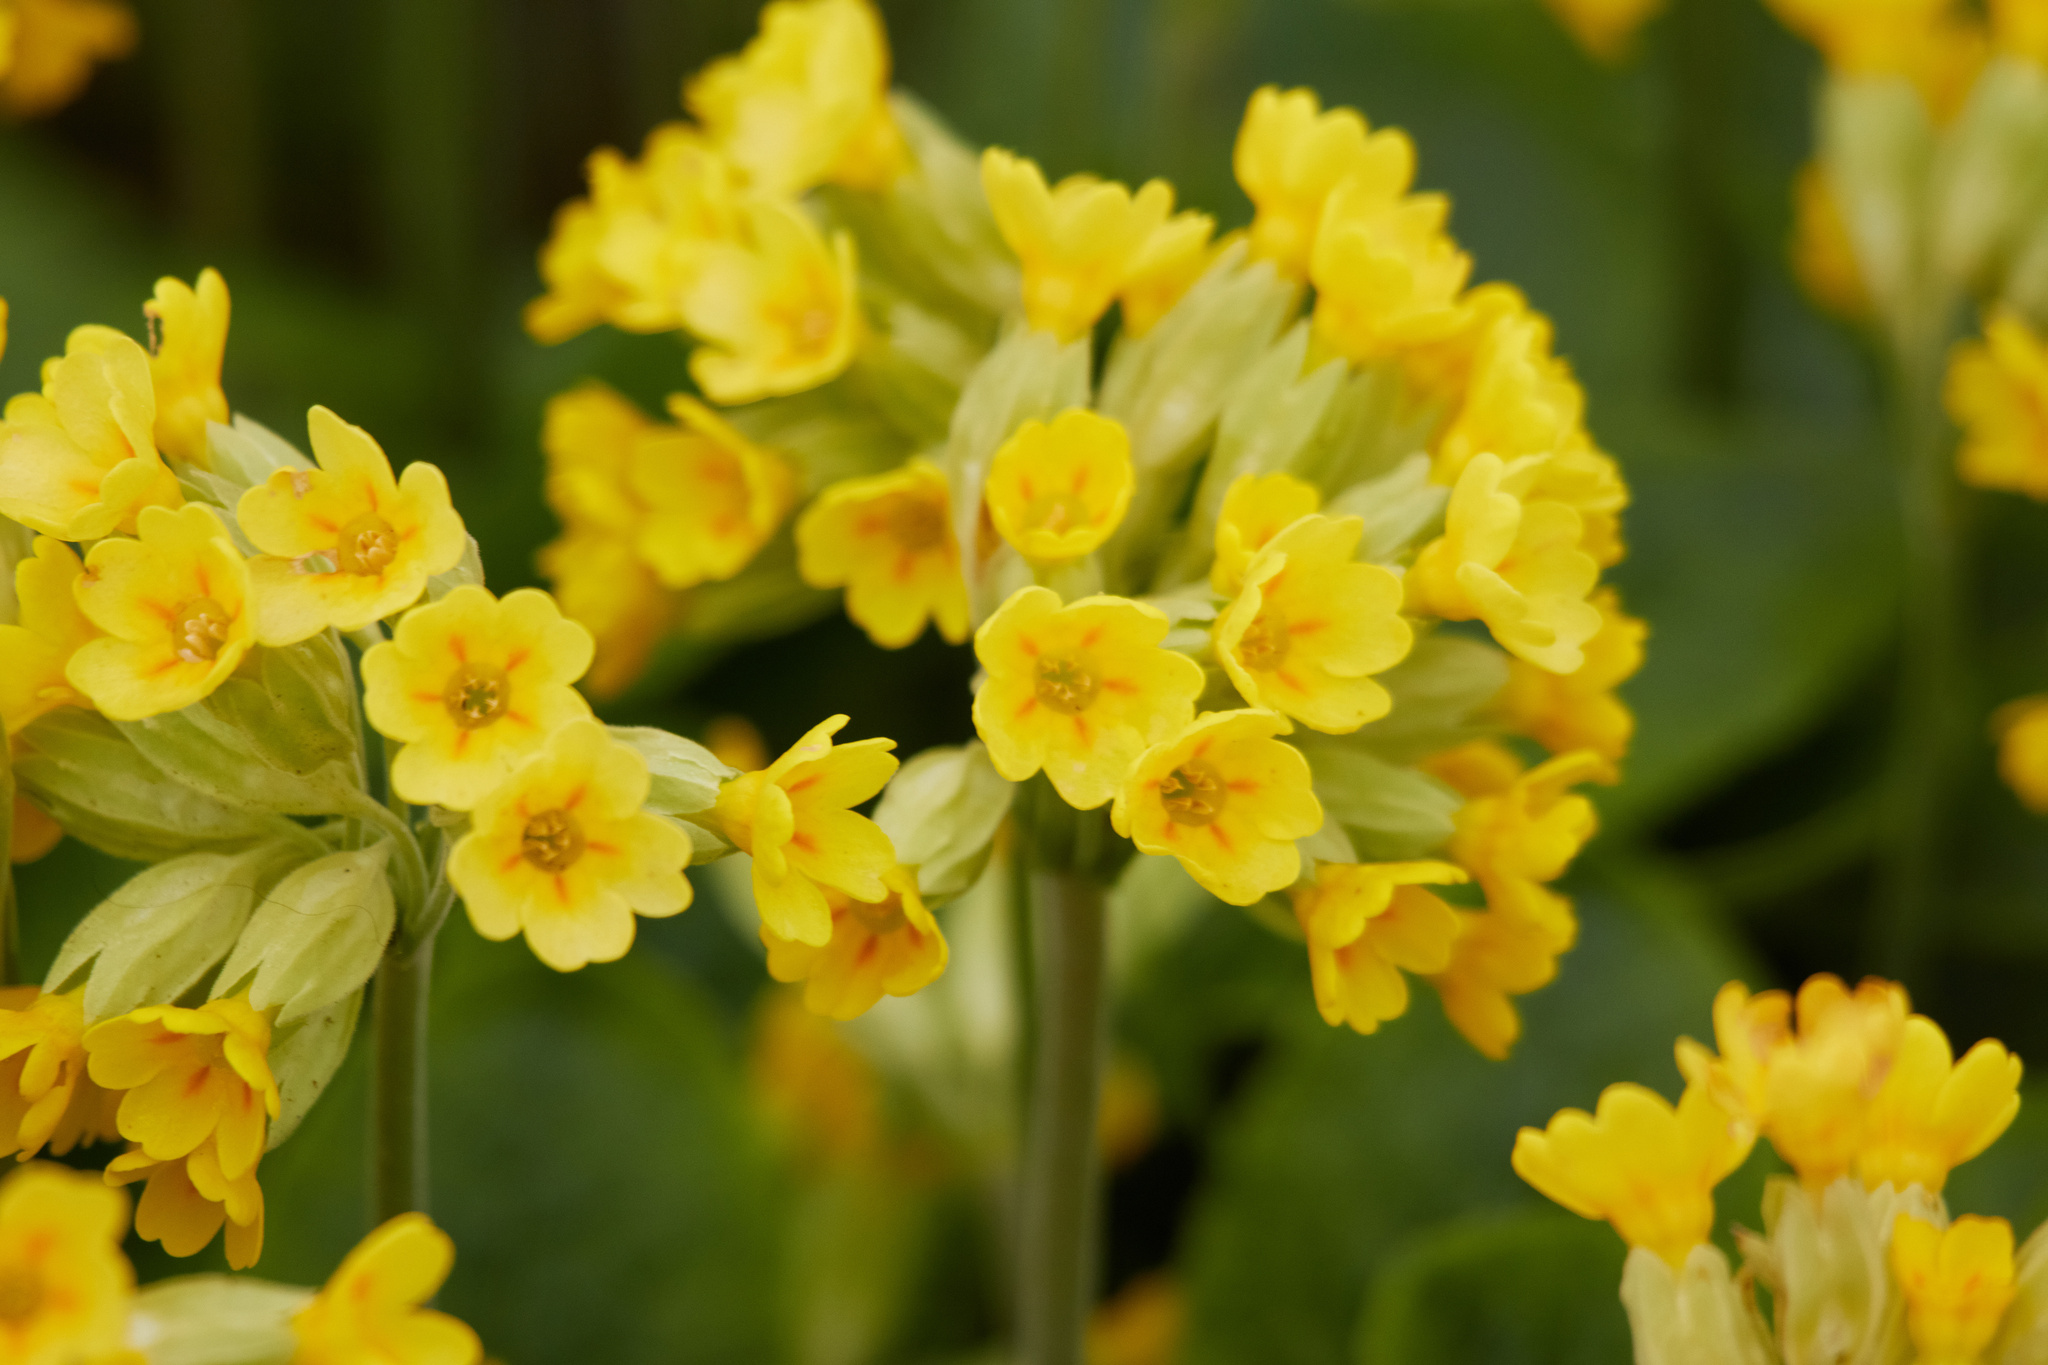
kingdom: Plantae
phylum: Tracheophyta
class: Magnoliopsida
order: Ericales
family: Primulaceae
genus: Primula
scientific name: Primula veris
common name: Cowslip
